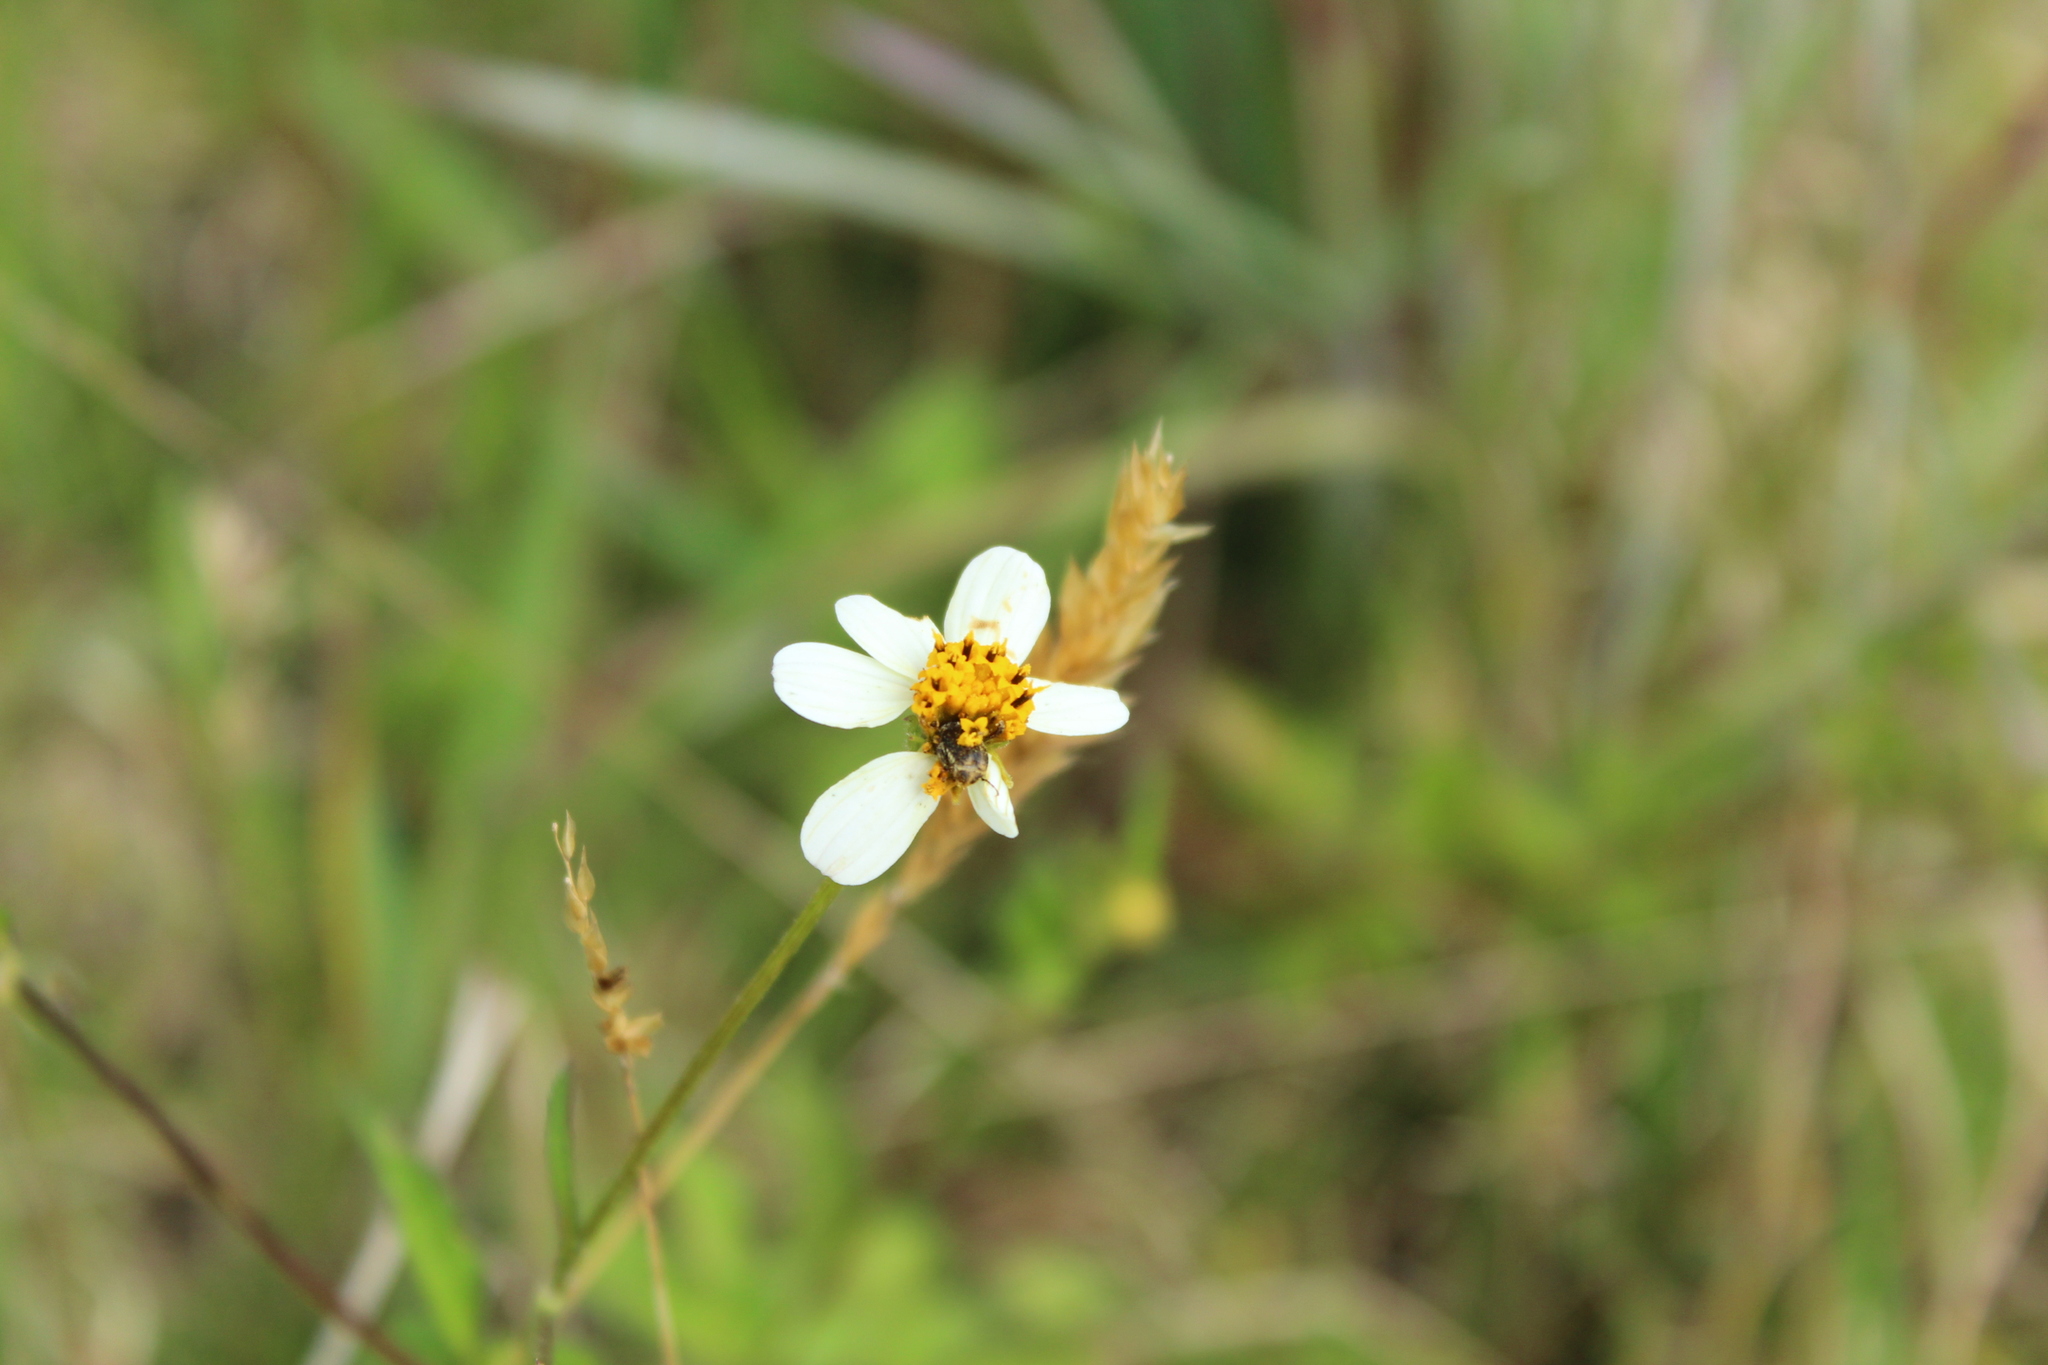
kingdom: Plantae
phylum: Tracheophyta
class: Magnoliopsida
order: Asterales
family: Asteraceae
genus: Bidens
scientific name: Bidens alba
